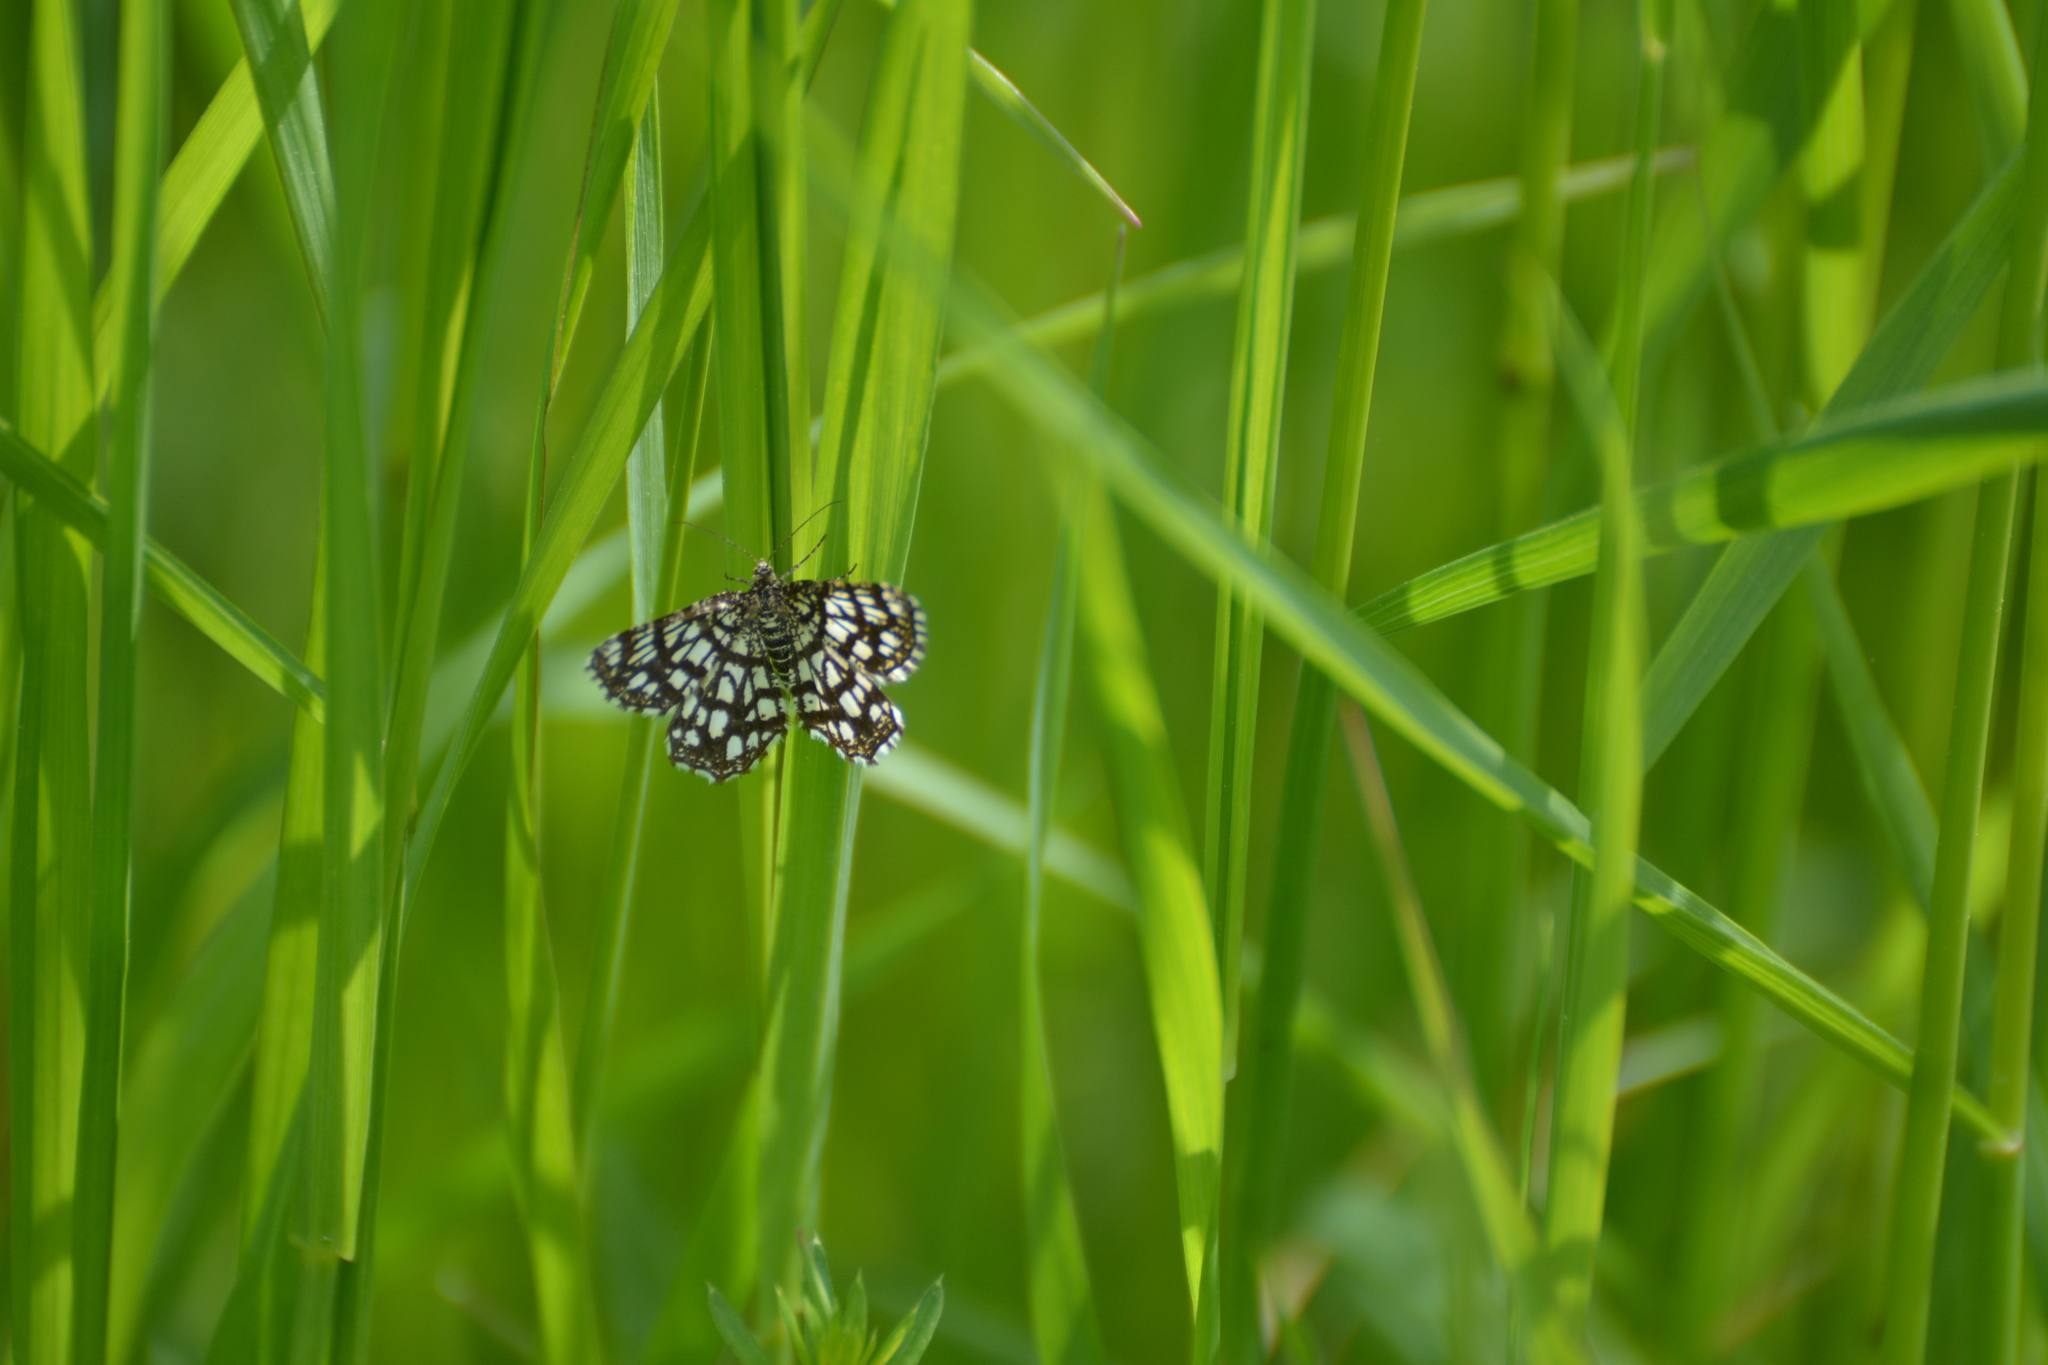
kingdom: Animalia
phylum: Arthropoda
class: Insecta
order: Lepidoptera
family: Geometridae
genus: Chiasmia
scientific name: Chiasmia clathrata
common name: Latticed heath
